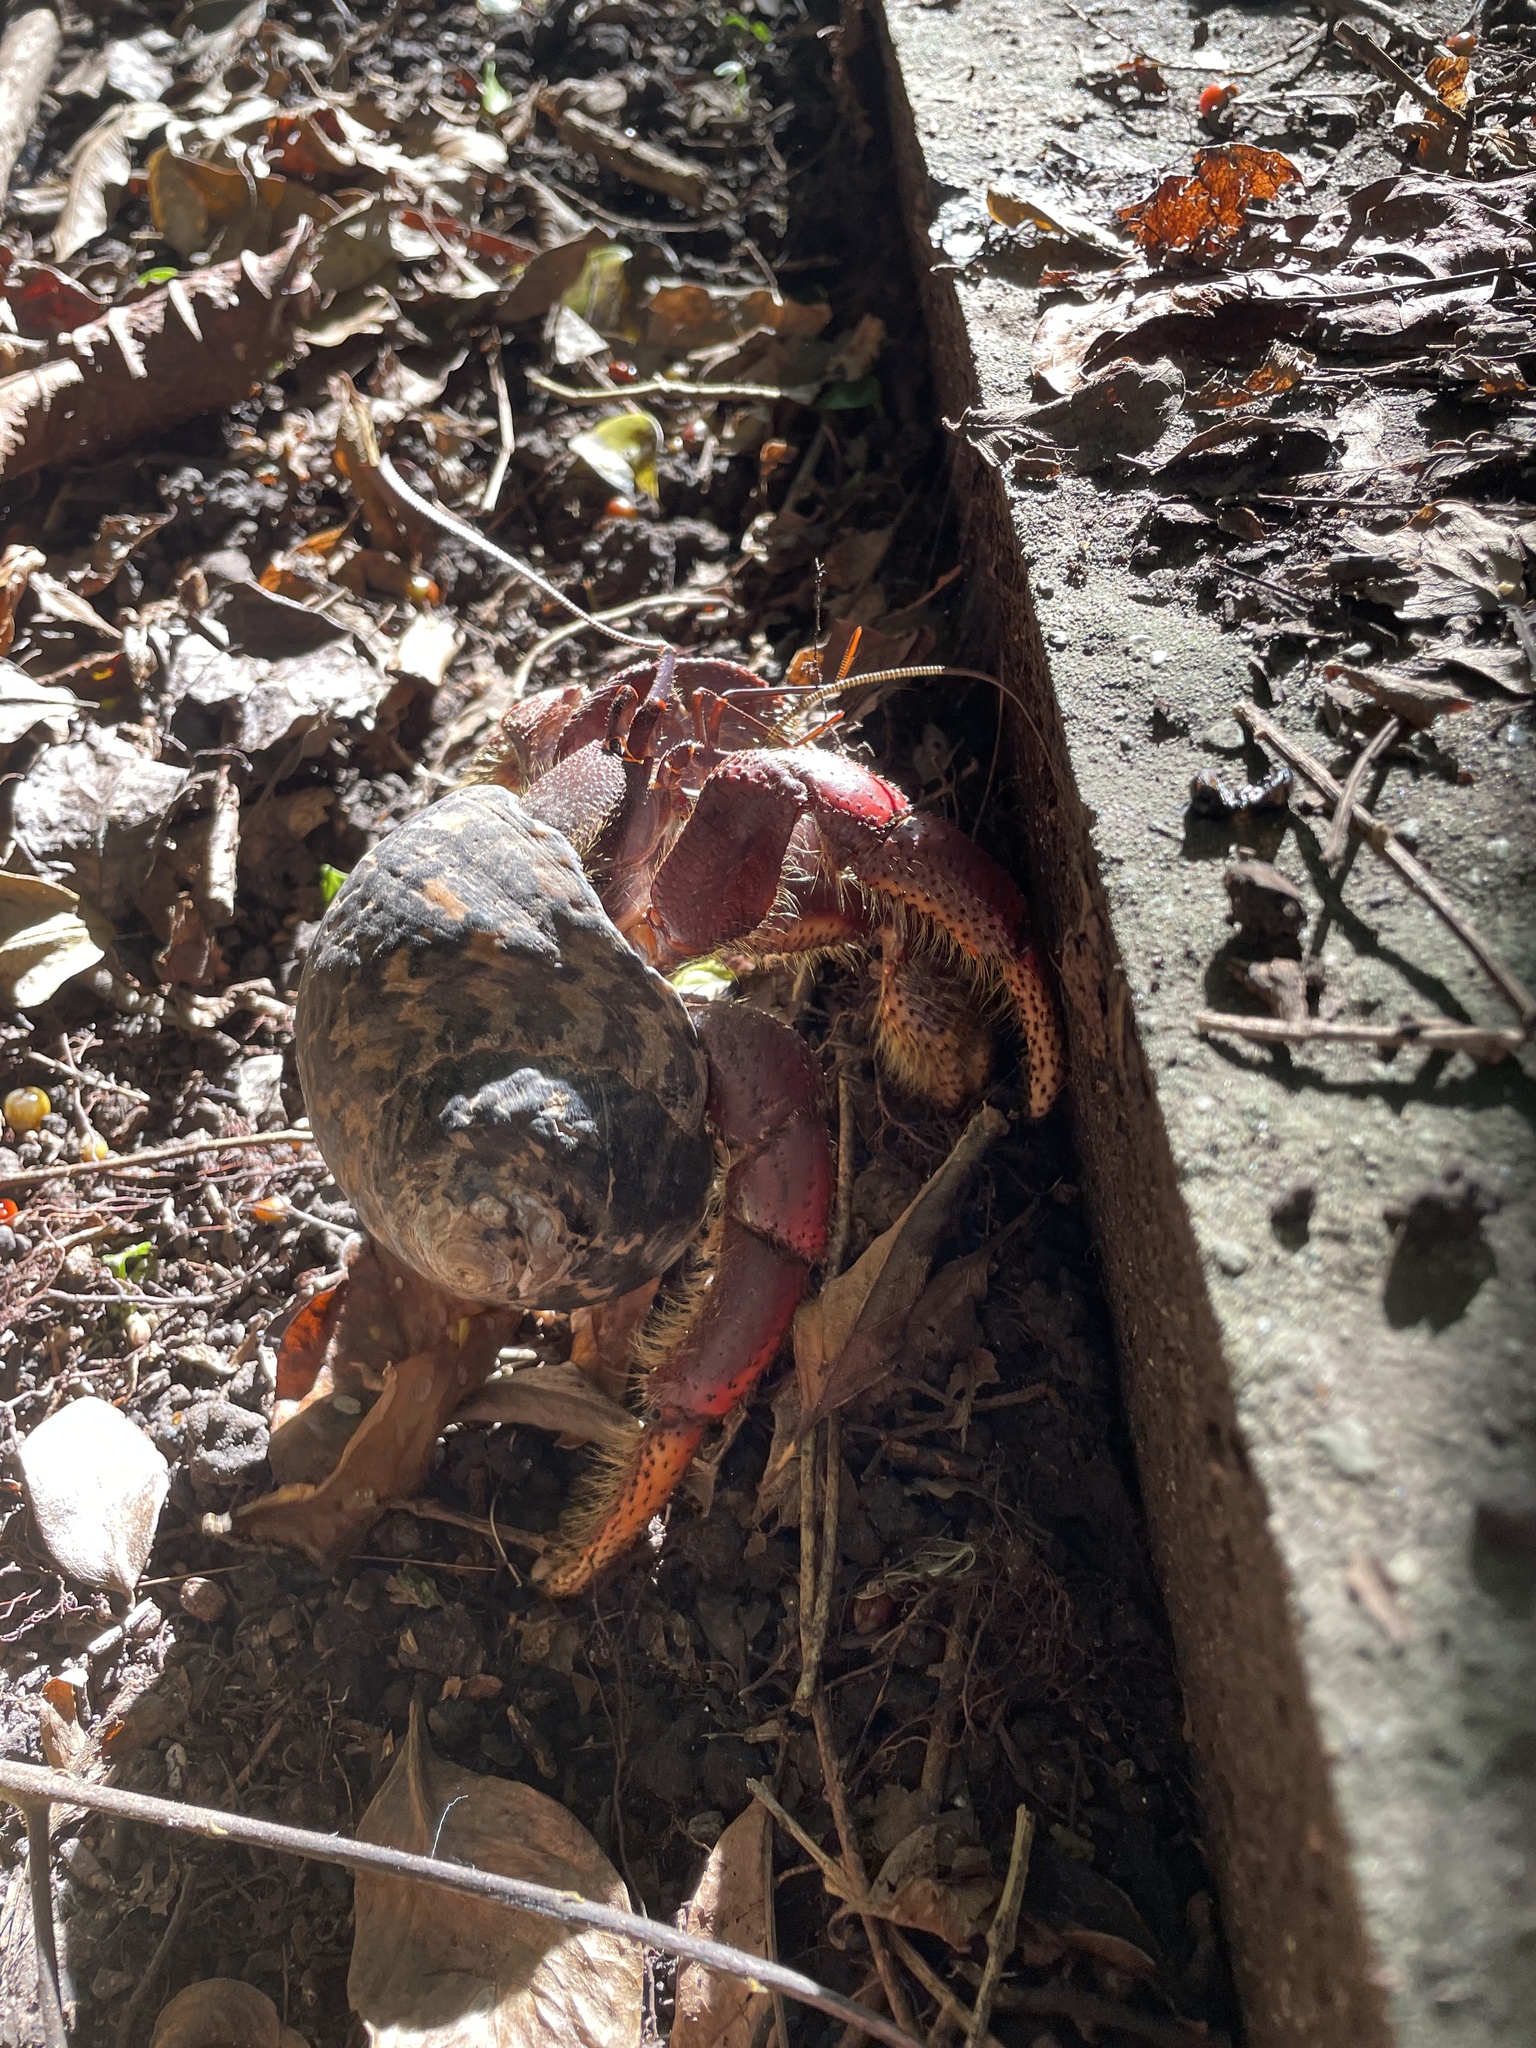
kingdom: Animalia
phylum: Arthropoda
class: Malacostraca
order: Decapoda
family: Coenobitidae
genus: Coenobita
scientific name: Coenobita clypeatus
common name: Caribbean hermit crab
